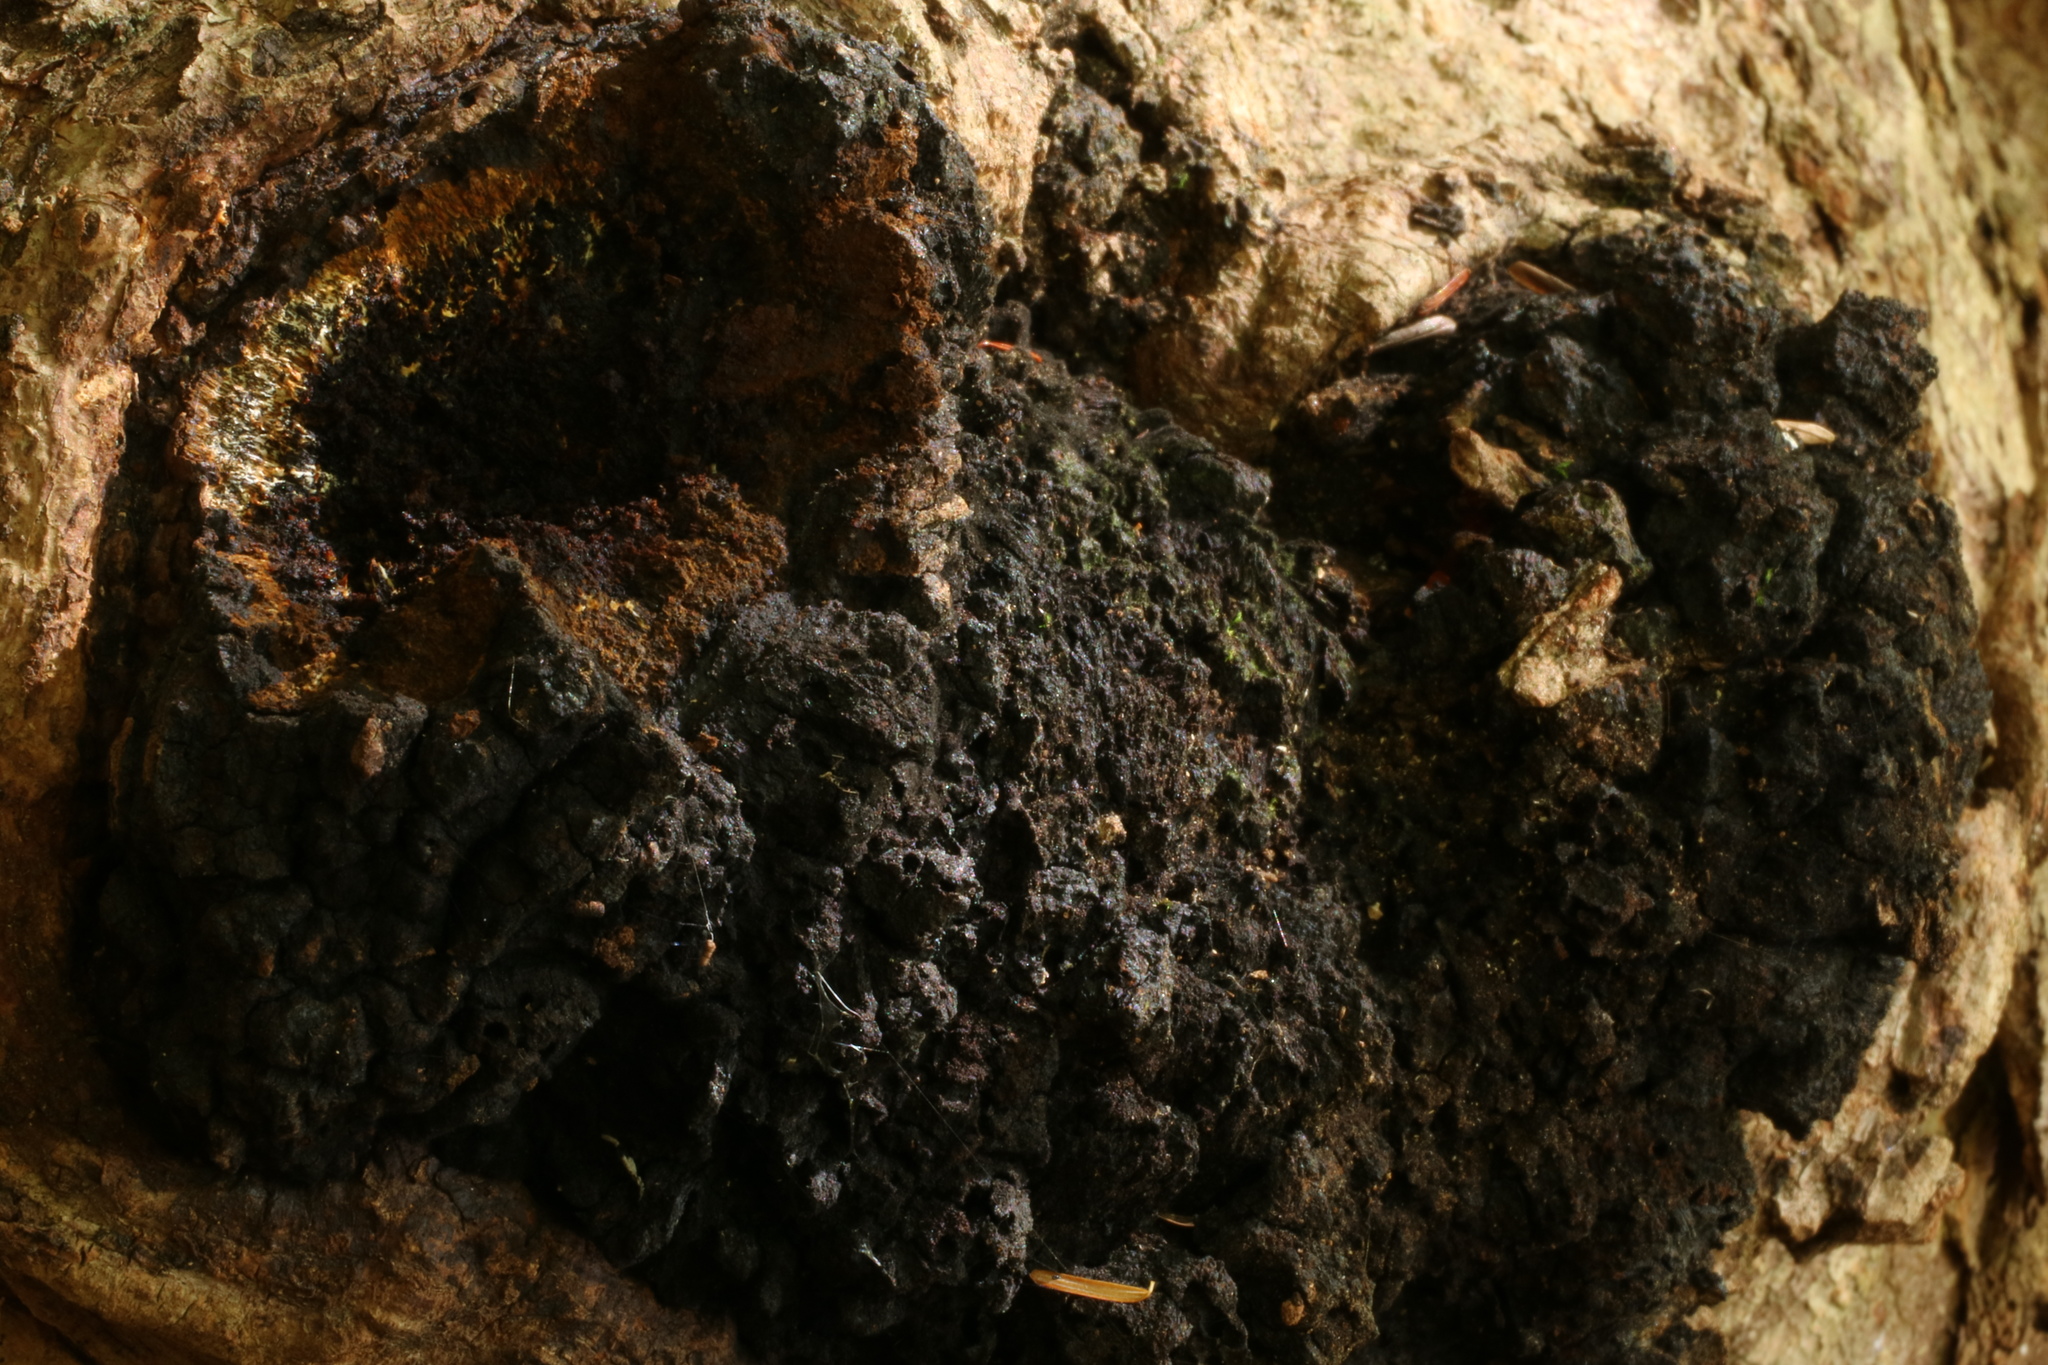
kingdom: Fungi
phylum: Basidiomycota
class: Agaricomycetes
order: Hymenochaetales
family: Hymenochaetaceae
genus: Inonotus
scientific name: Inonotus obliquus
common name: Chaga
